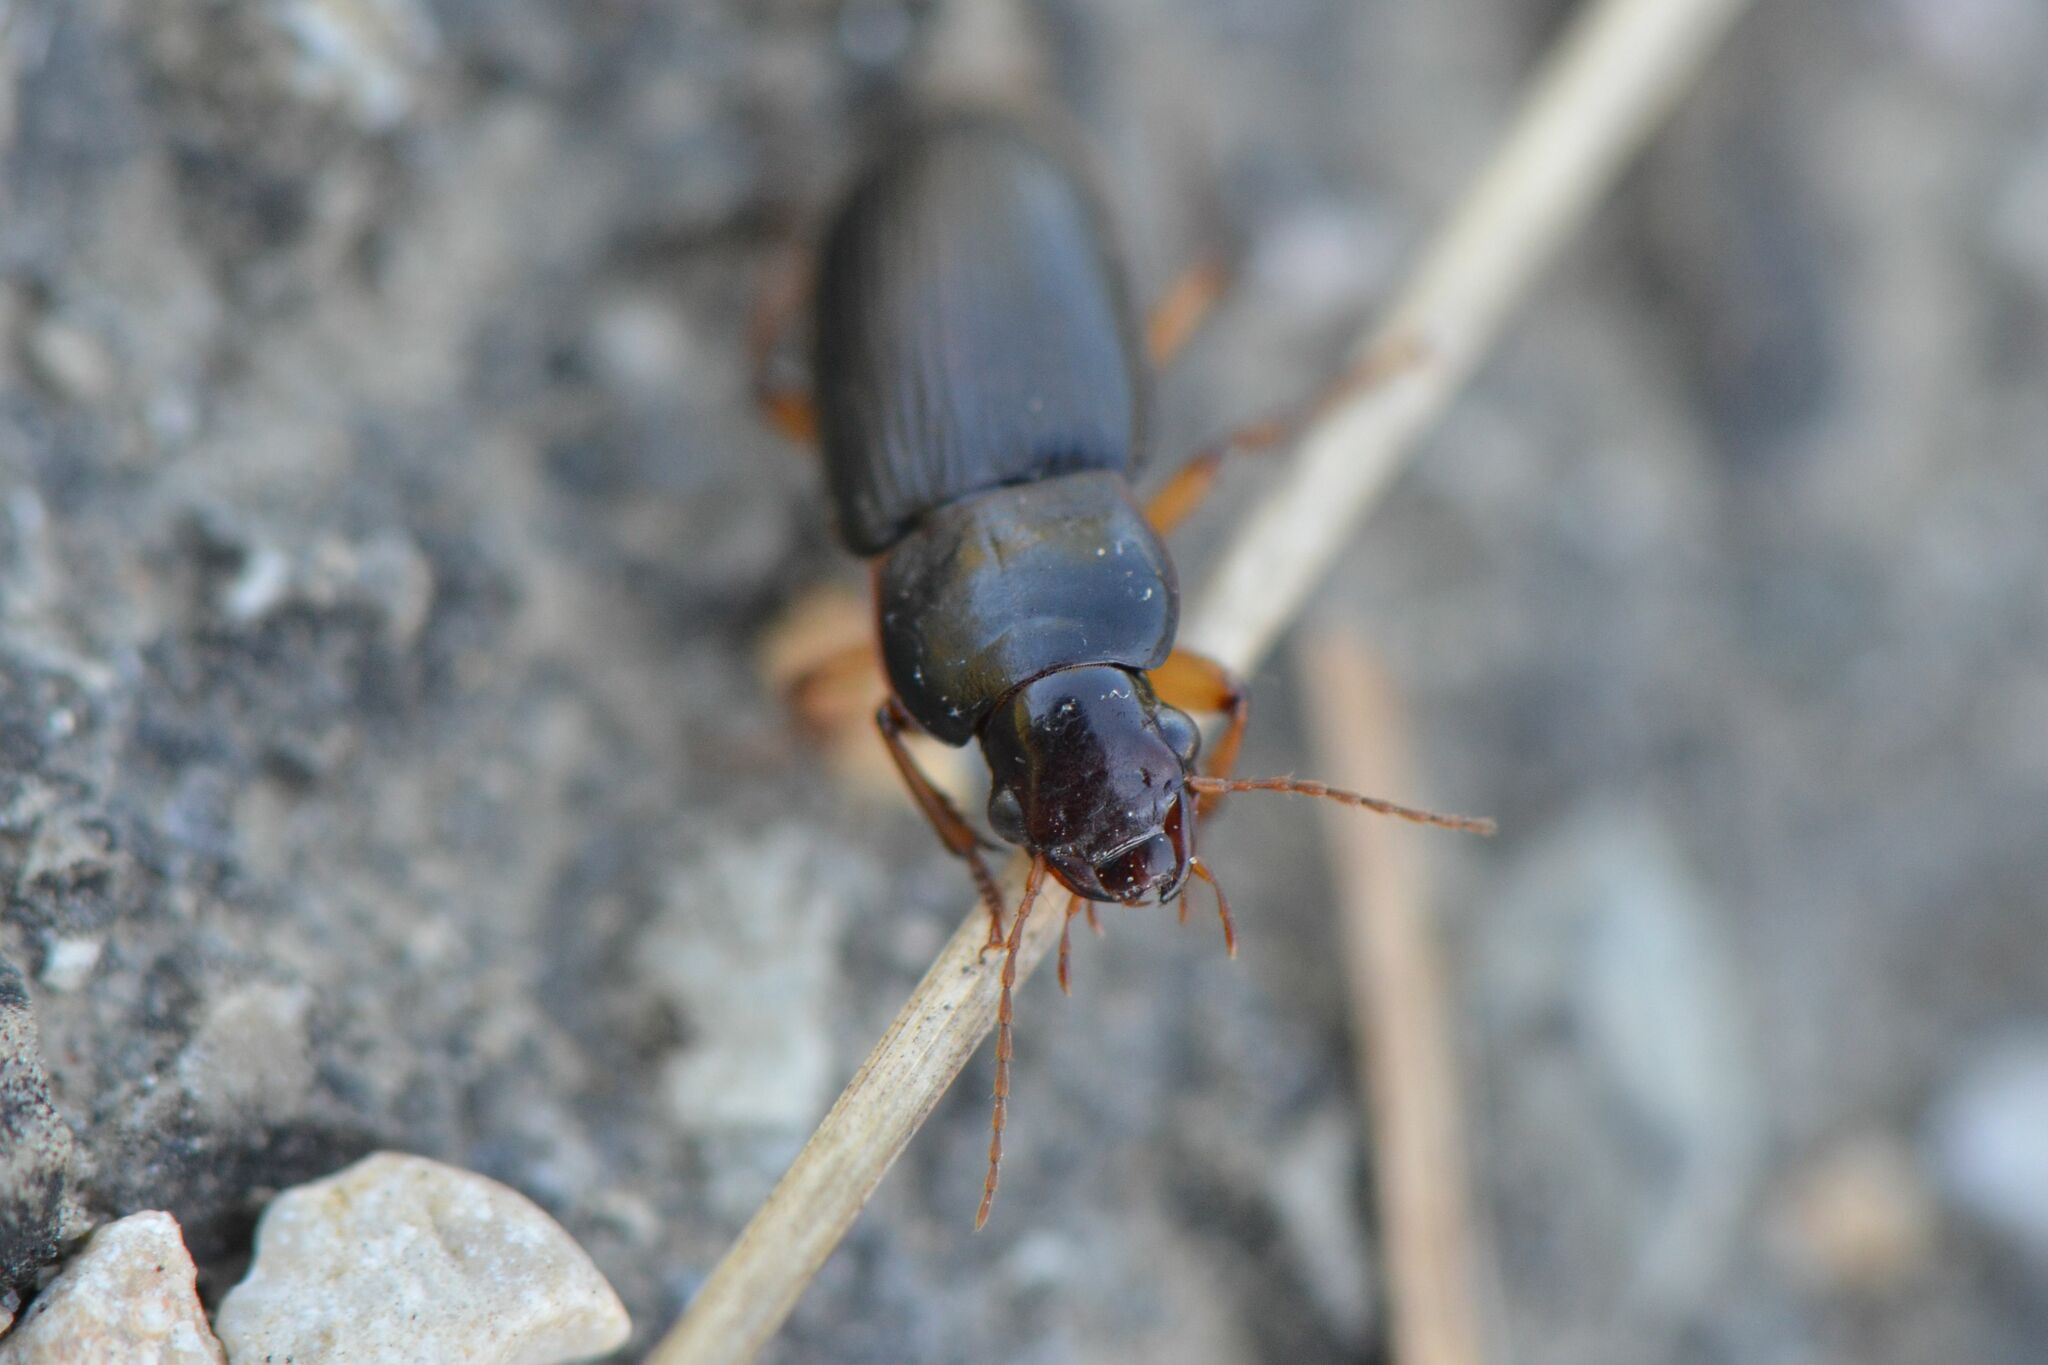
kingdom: Animalia
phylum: Arthropoda
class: Insecta
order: Coleoptera
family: Carabidae
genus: Harpalus
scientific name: Harpalus griseus
